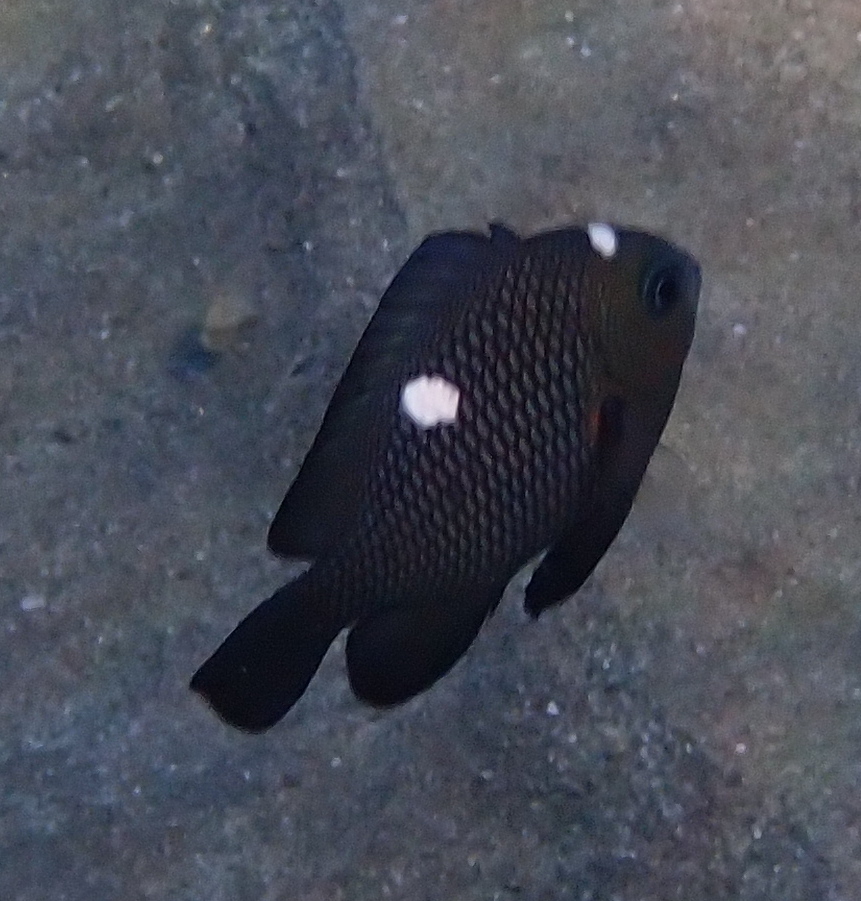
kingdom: Animalia
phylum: Chordata
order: Perciformes
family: Pomacentridae
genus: Dascyllus
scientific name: Dascyllus trimaculatus
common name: Threespot dascyllus
